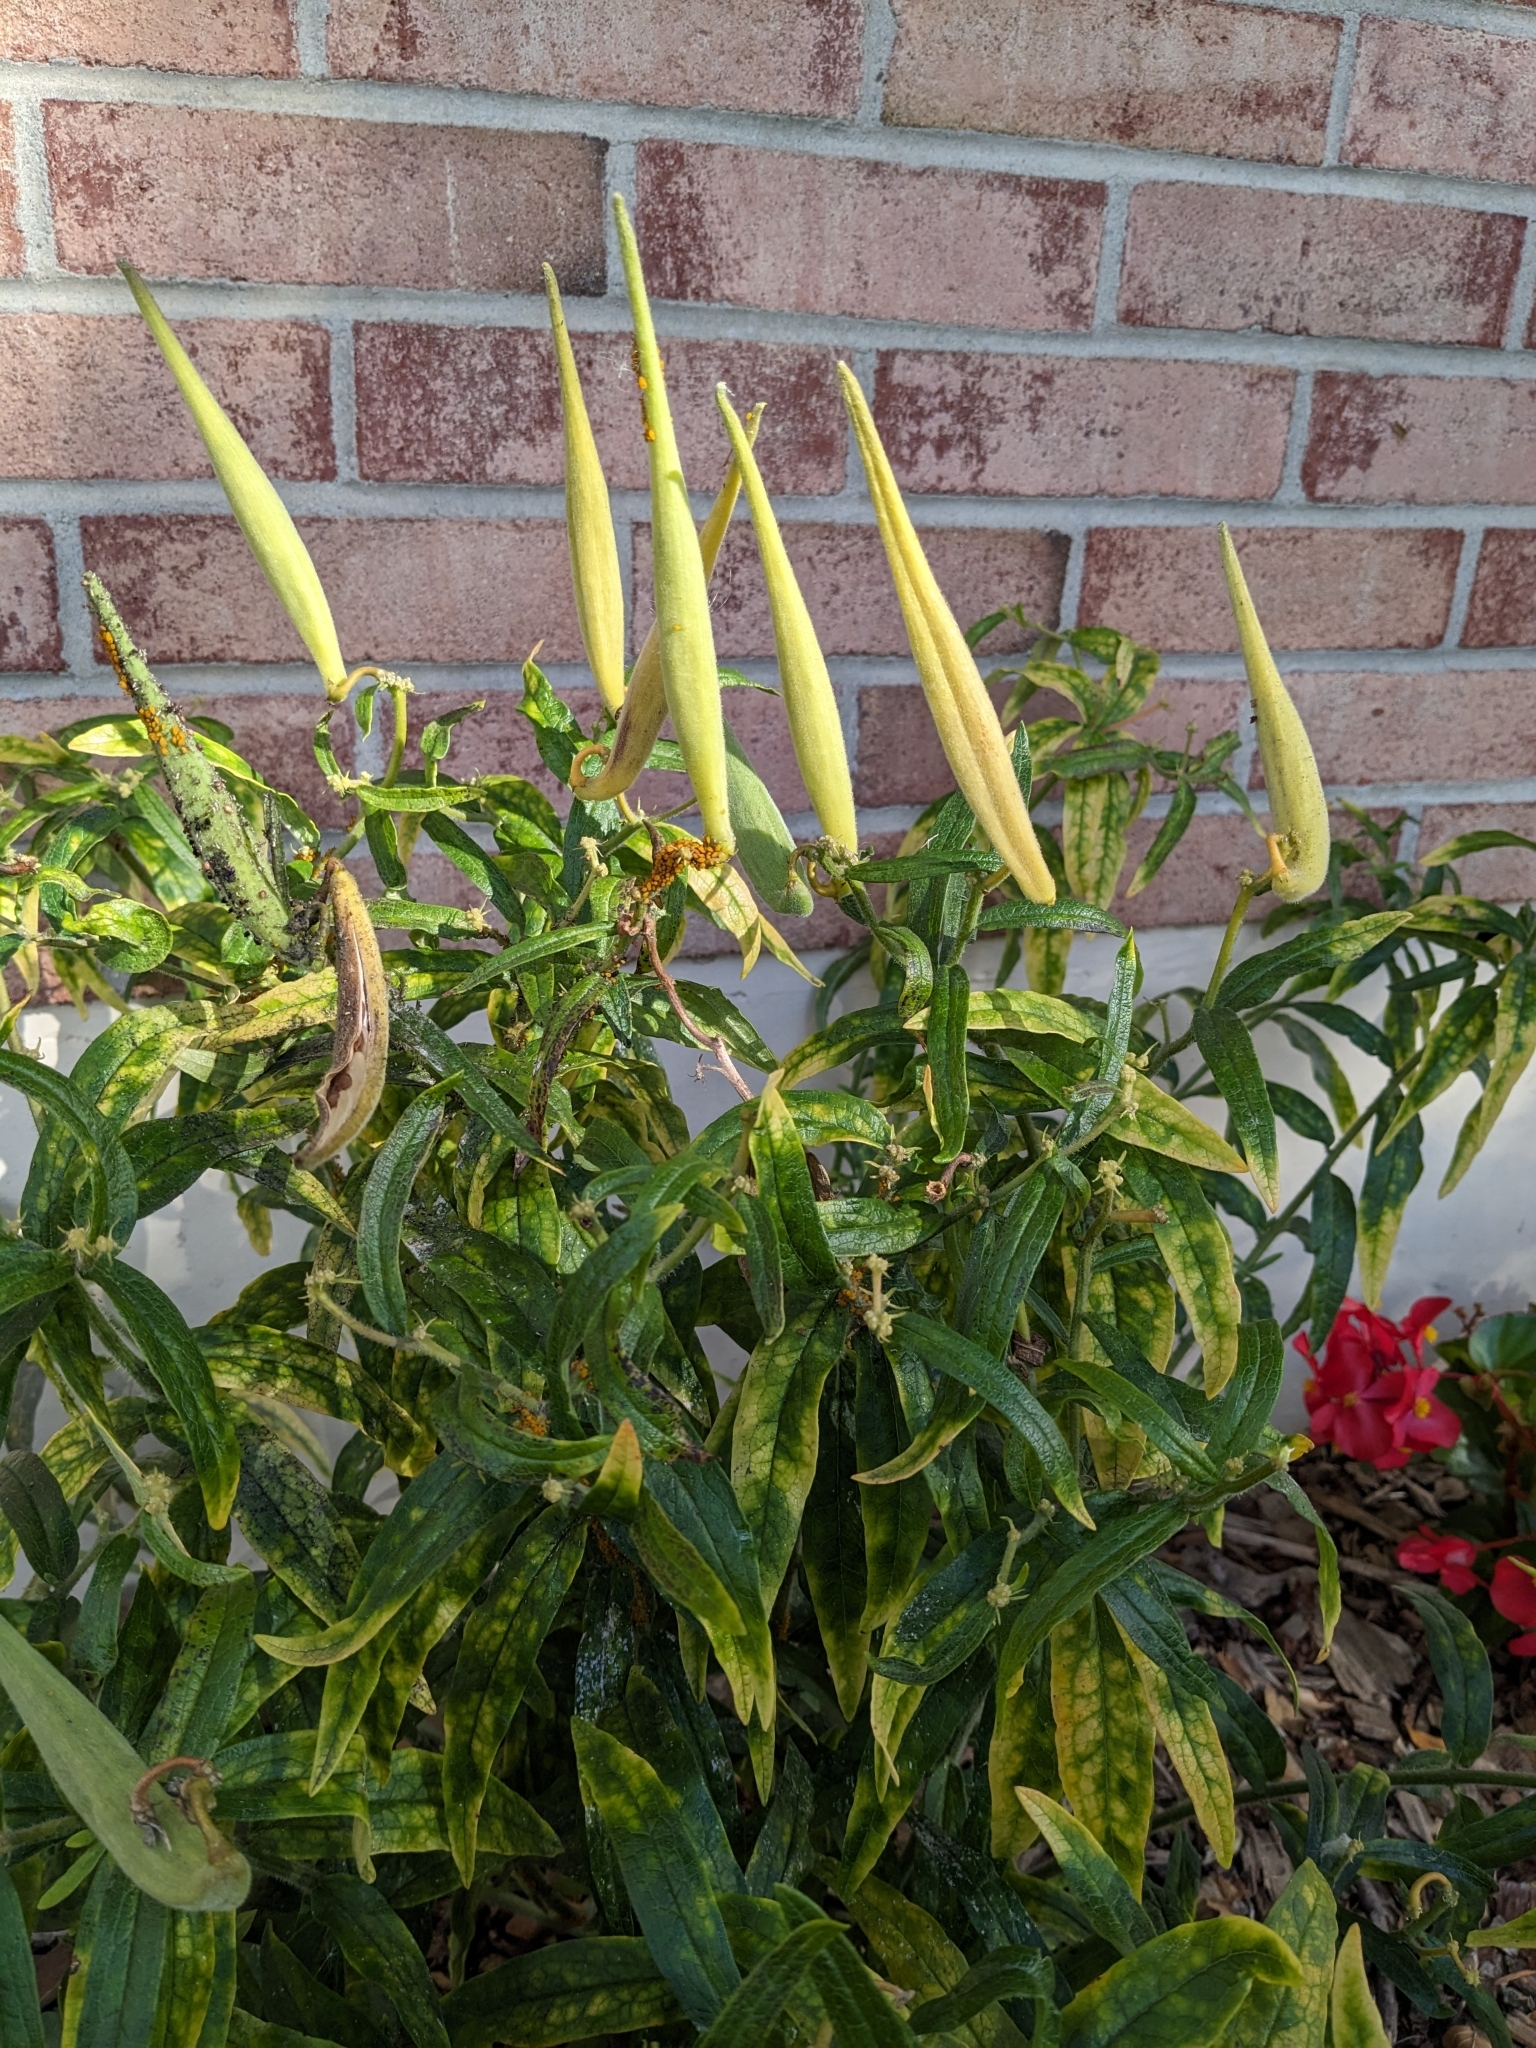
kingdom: Animalia
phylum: Arthropoda
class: Insecta
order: Hemiptera
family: Aphididae
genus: Aphis
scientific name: Aphis nerii
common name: Oleander aphid
